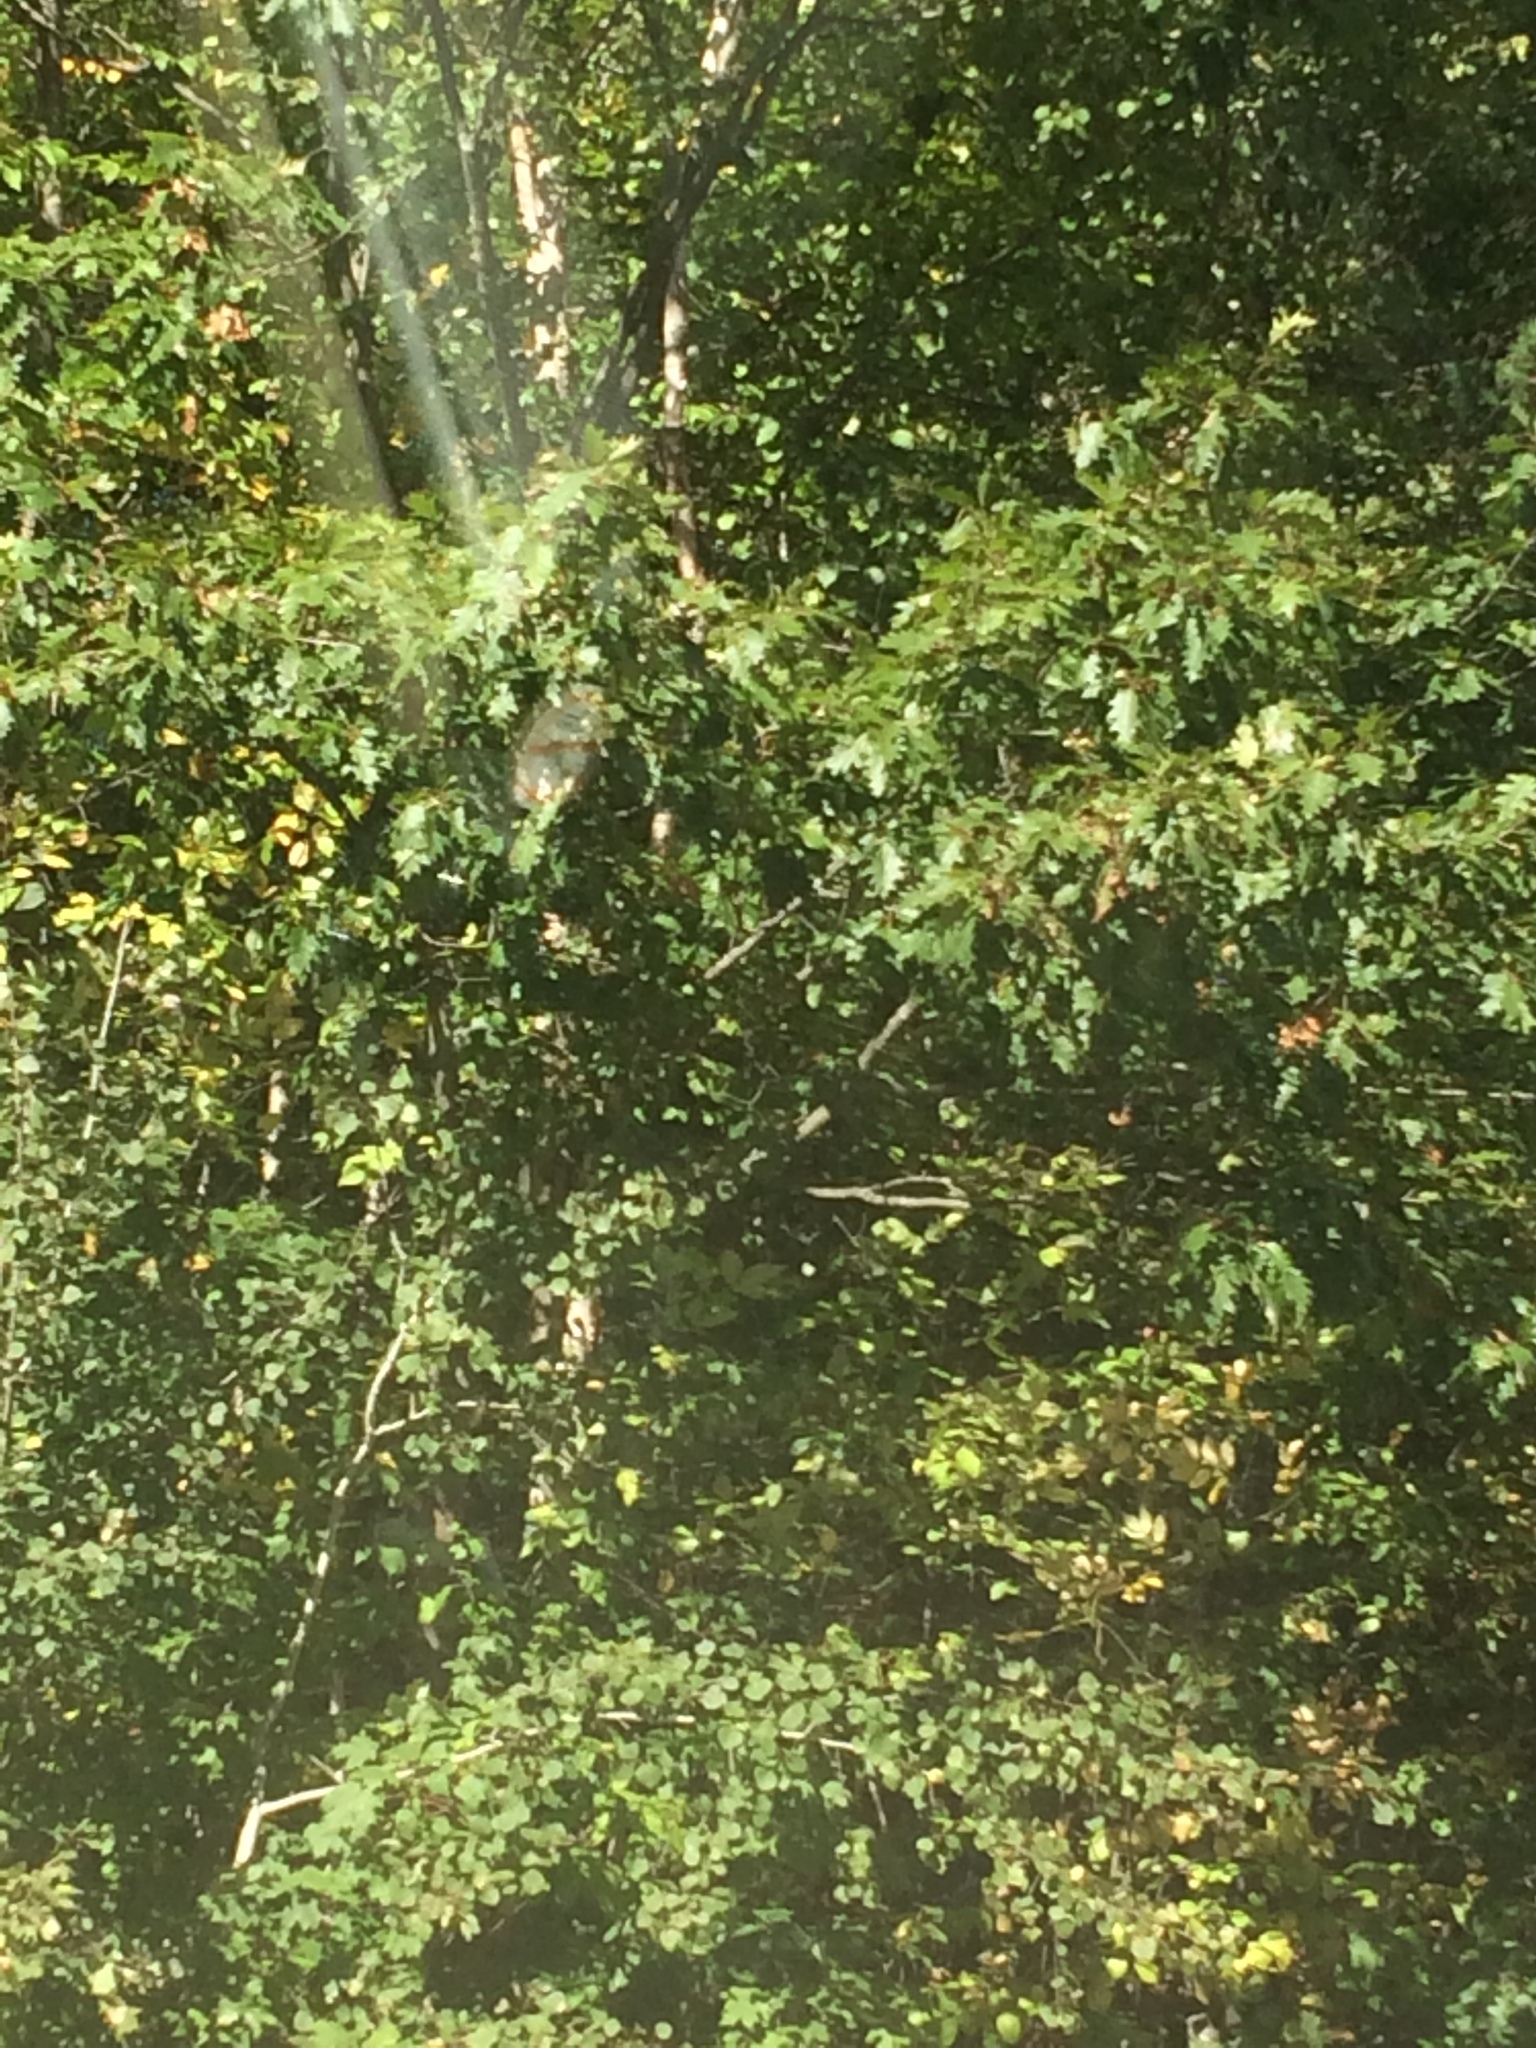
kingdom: Plantae
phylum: Tracheophyta
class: Magnoliopsida
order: Fagales
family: Fagaceae
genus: Quercus
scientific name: Quercus rubra
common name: Red oak
